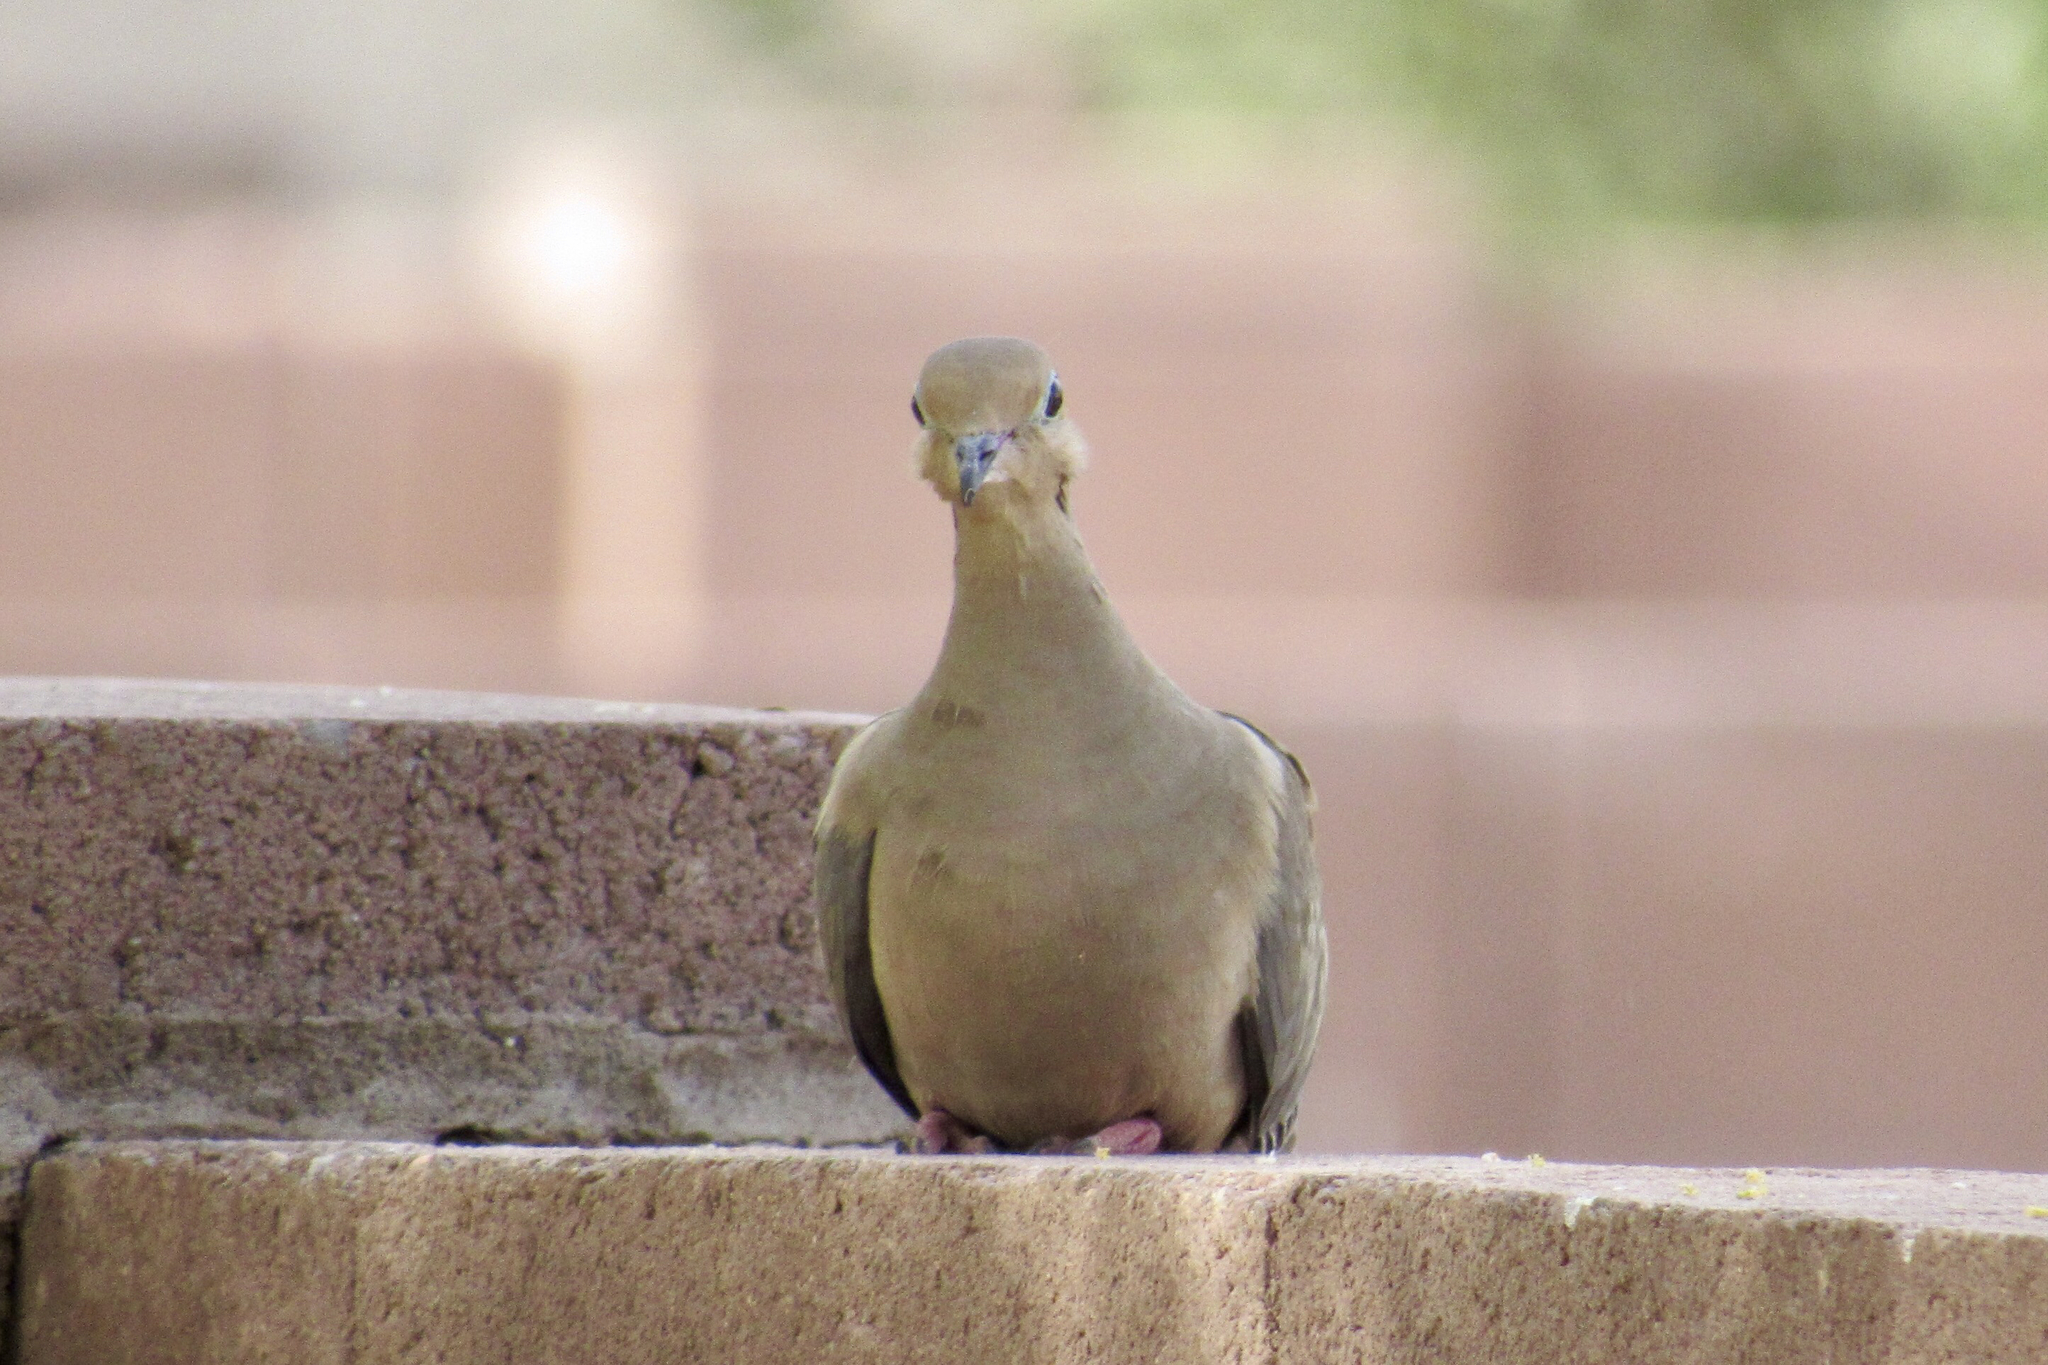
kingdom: Animalia
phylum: Chordata
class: Aves
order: Columbiformes
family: Columbidae
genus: Zenaida
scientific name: Zenaida macroura
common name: Mourning dove
